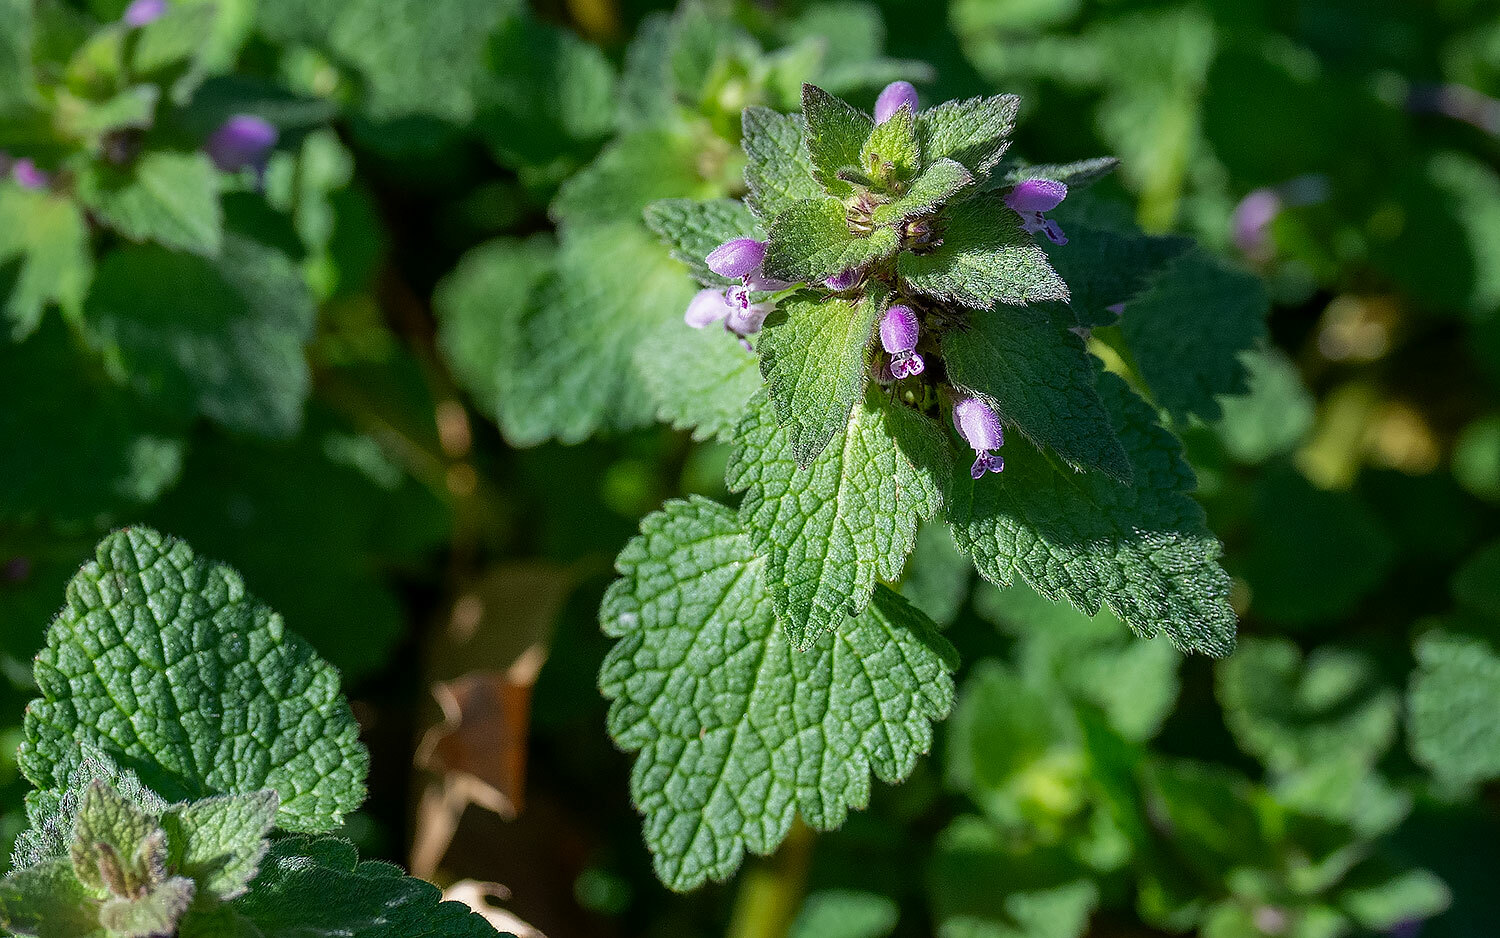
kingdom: Plantae
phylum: Tracheophyta
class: Magnoliopsida
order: Lamiales
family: Lamiaceae
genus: Lamium
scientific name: Lamium purpureum
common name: Red dead-nettle
